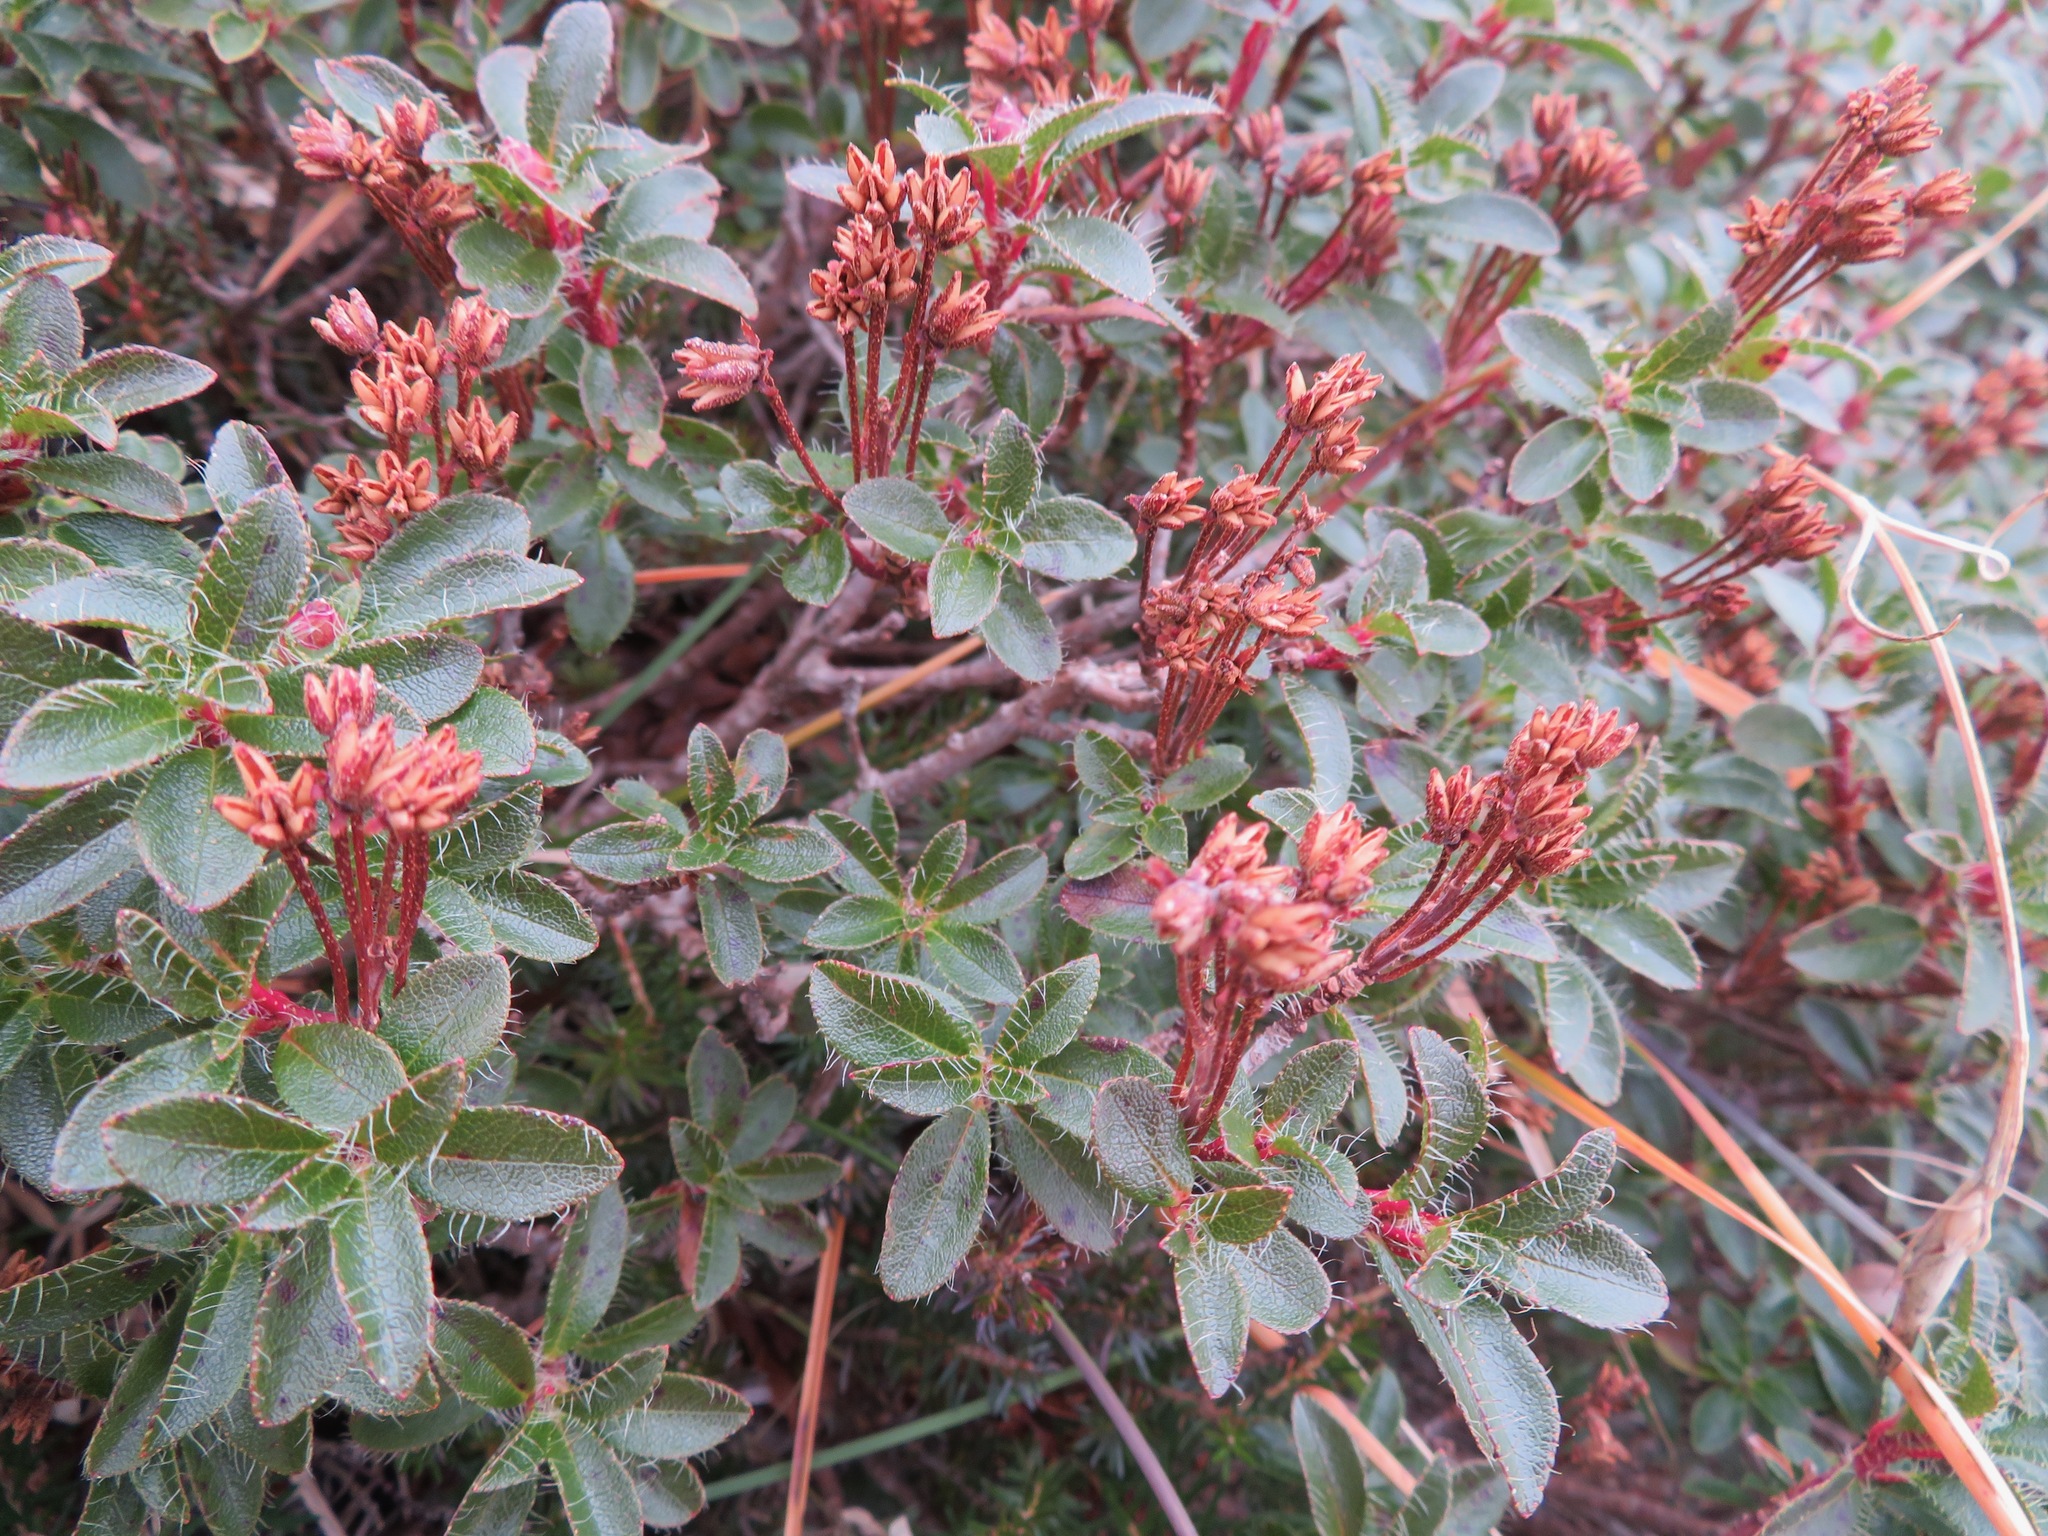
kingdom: Plantae
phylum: Tracheophyta
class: Magnoliopsida
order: Ericales
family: Ericaceae
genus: Rhododendron
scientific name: Rhododendron hirsutum
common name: Hairy alpenrose
